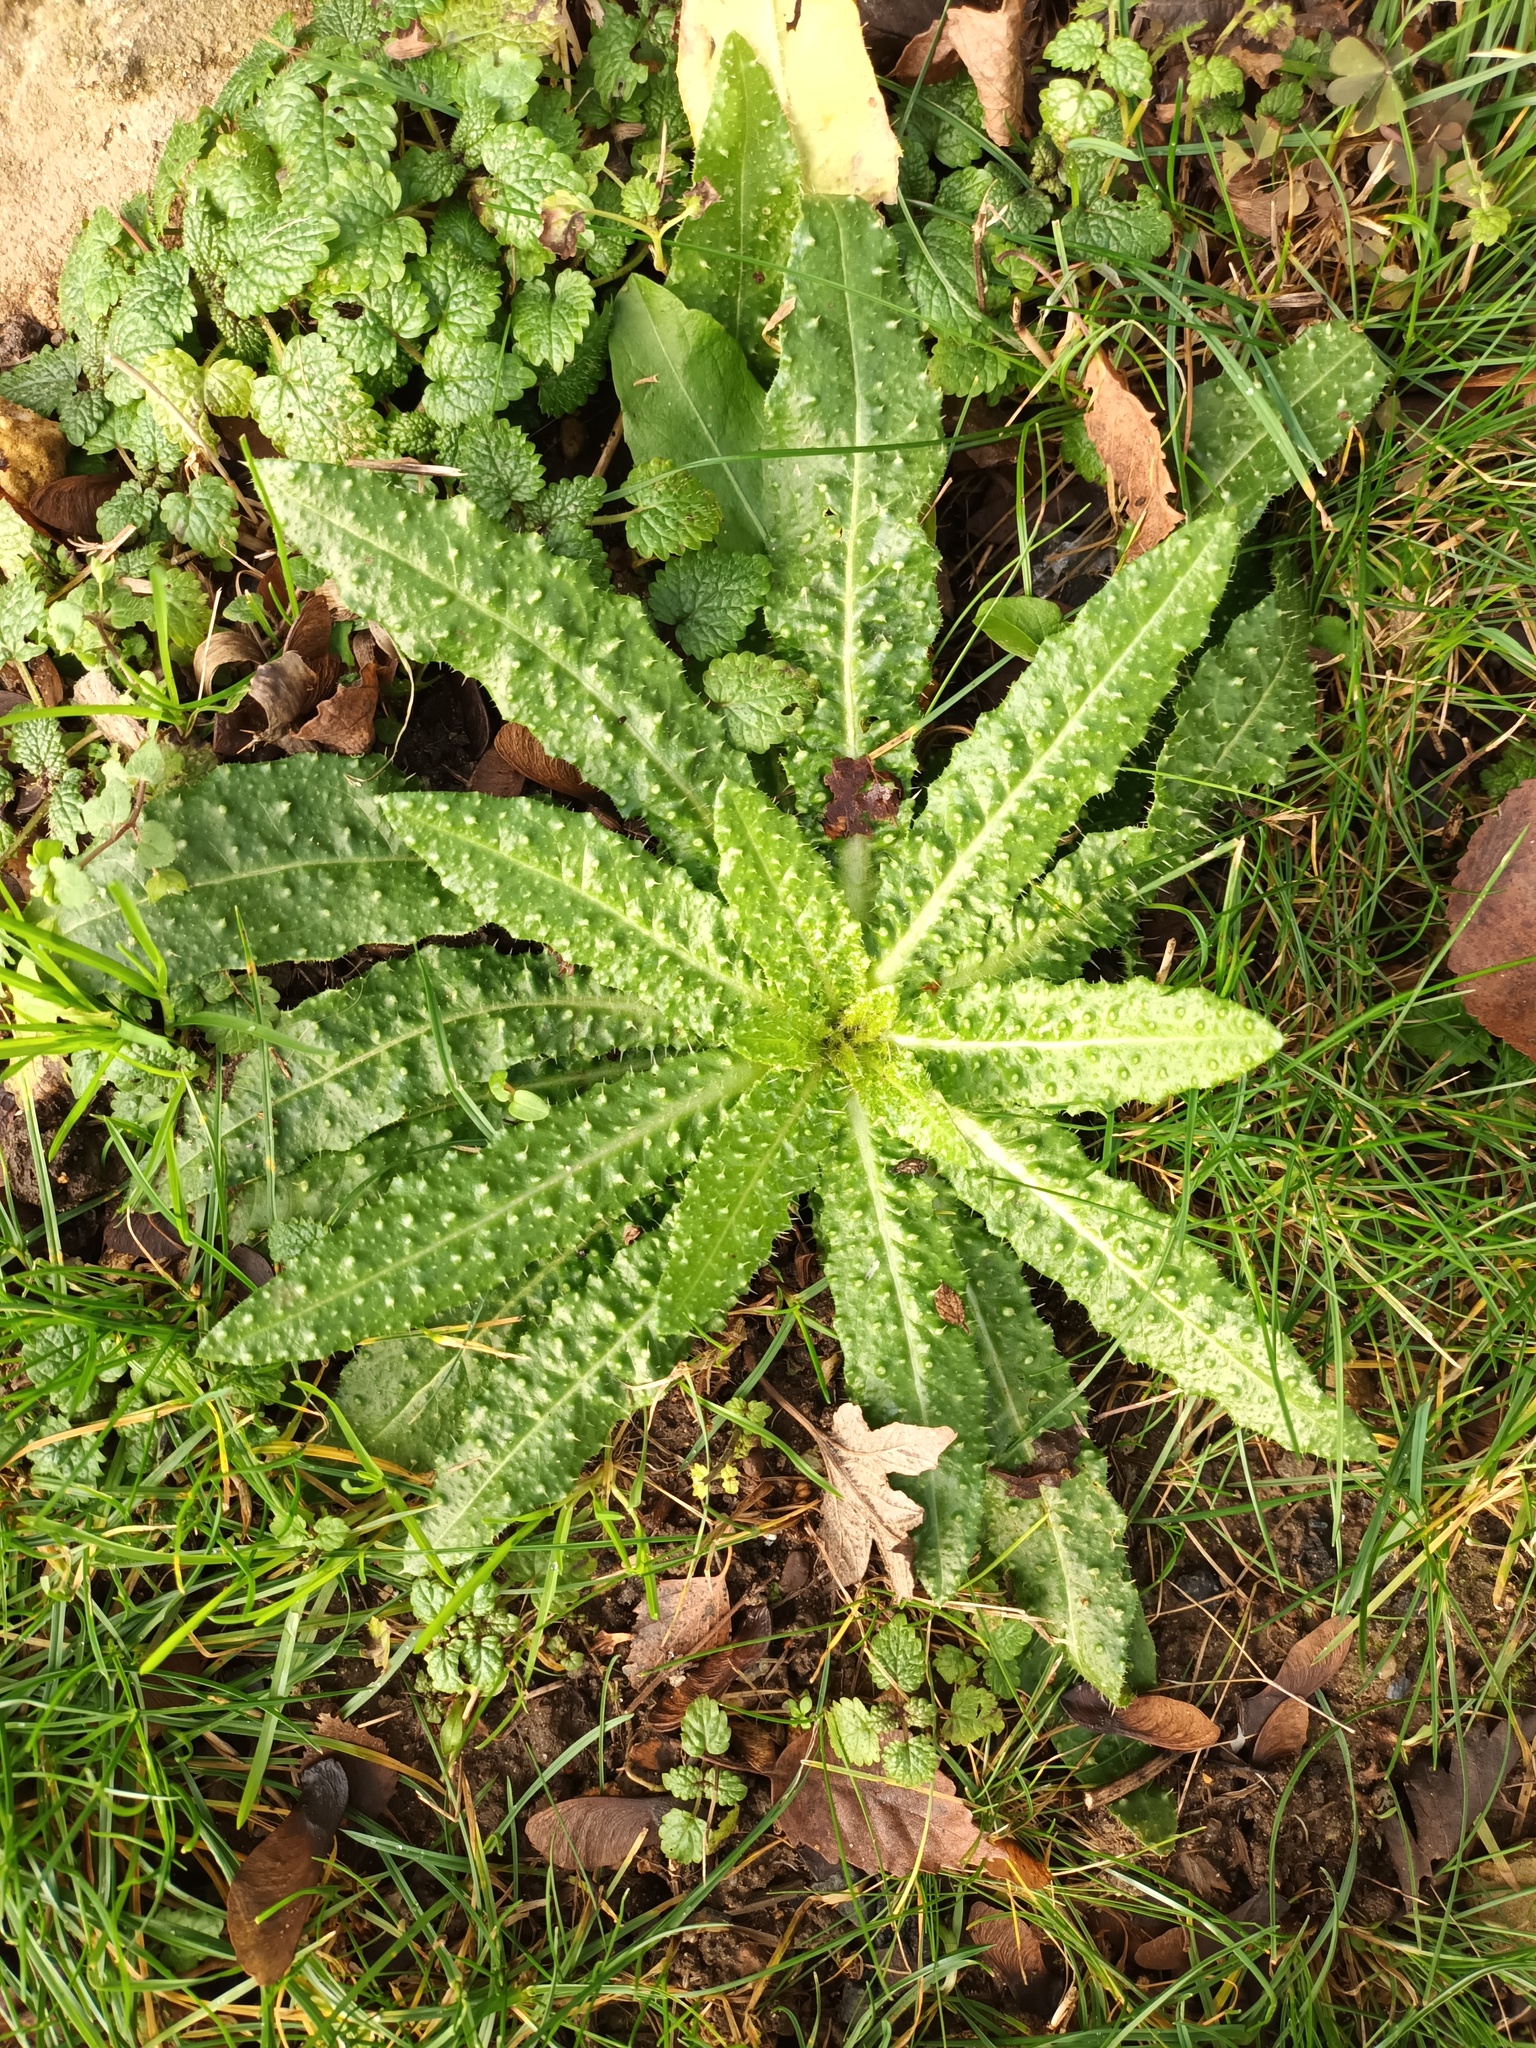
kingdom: Plantae
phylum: Tracheophyta
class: Magnoliopsida
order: Asterales
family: Asteraceae
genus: Helminthotheca
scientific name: Helminthotheca echioides
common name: Ox-tongue
